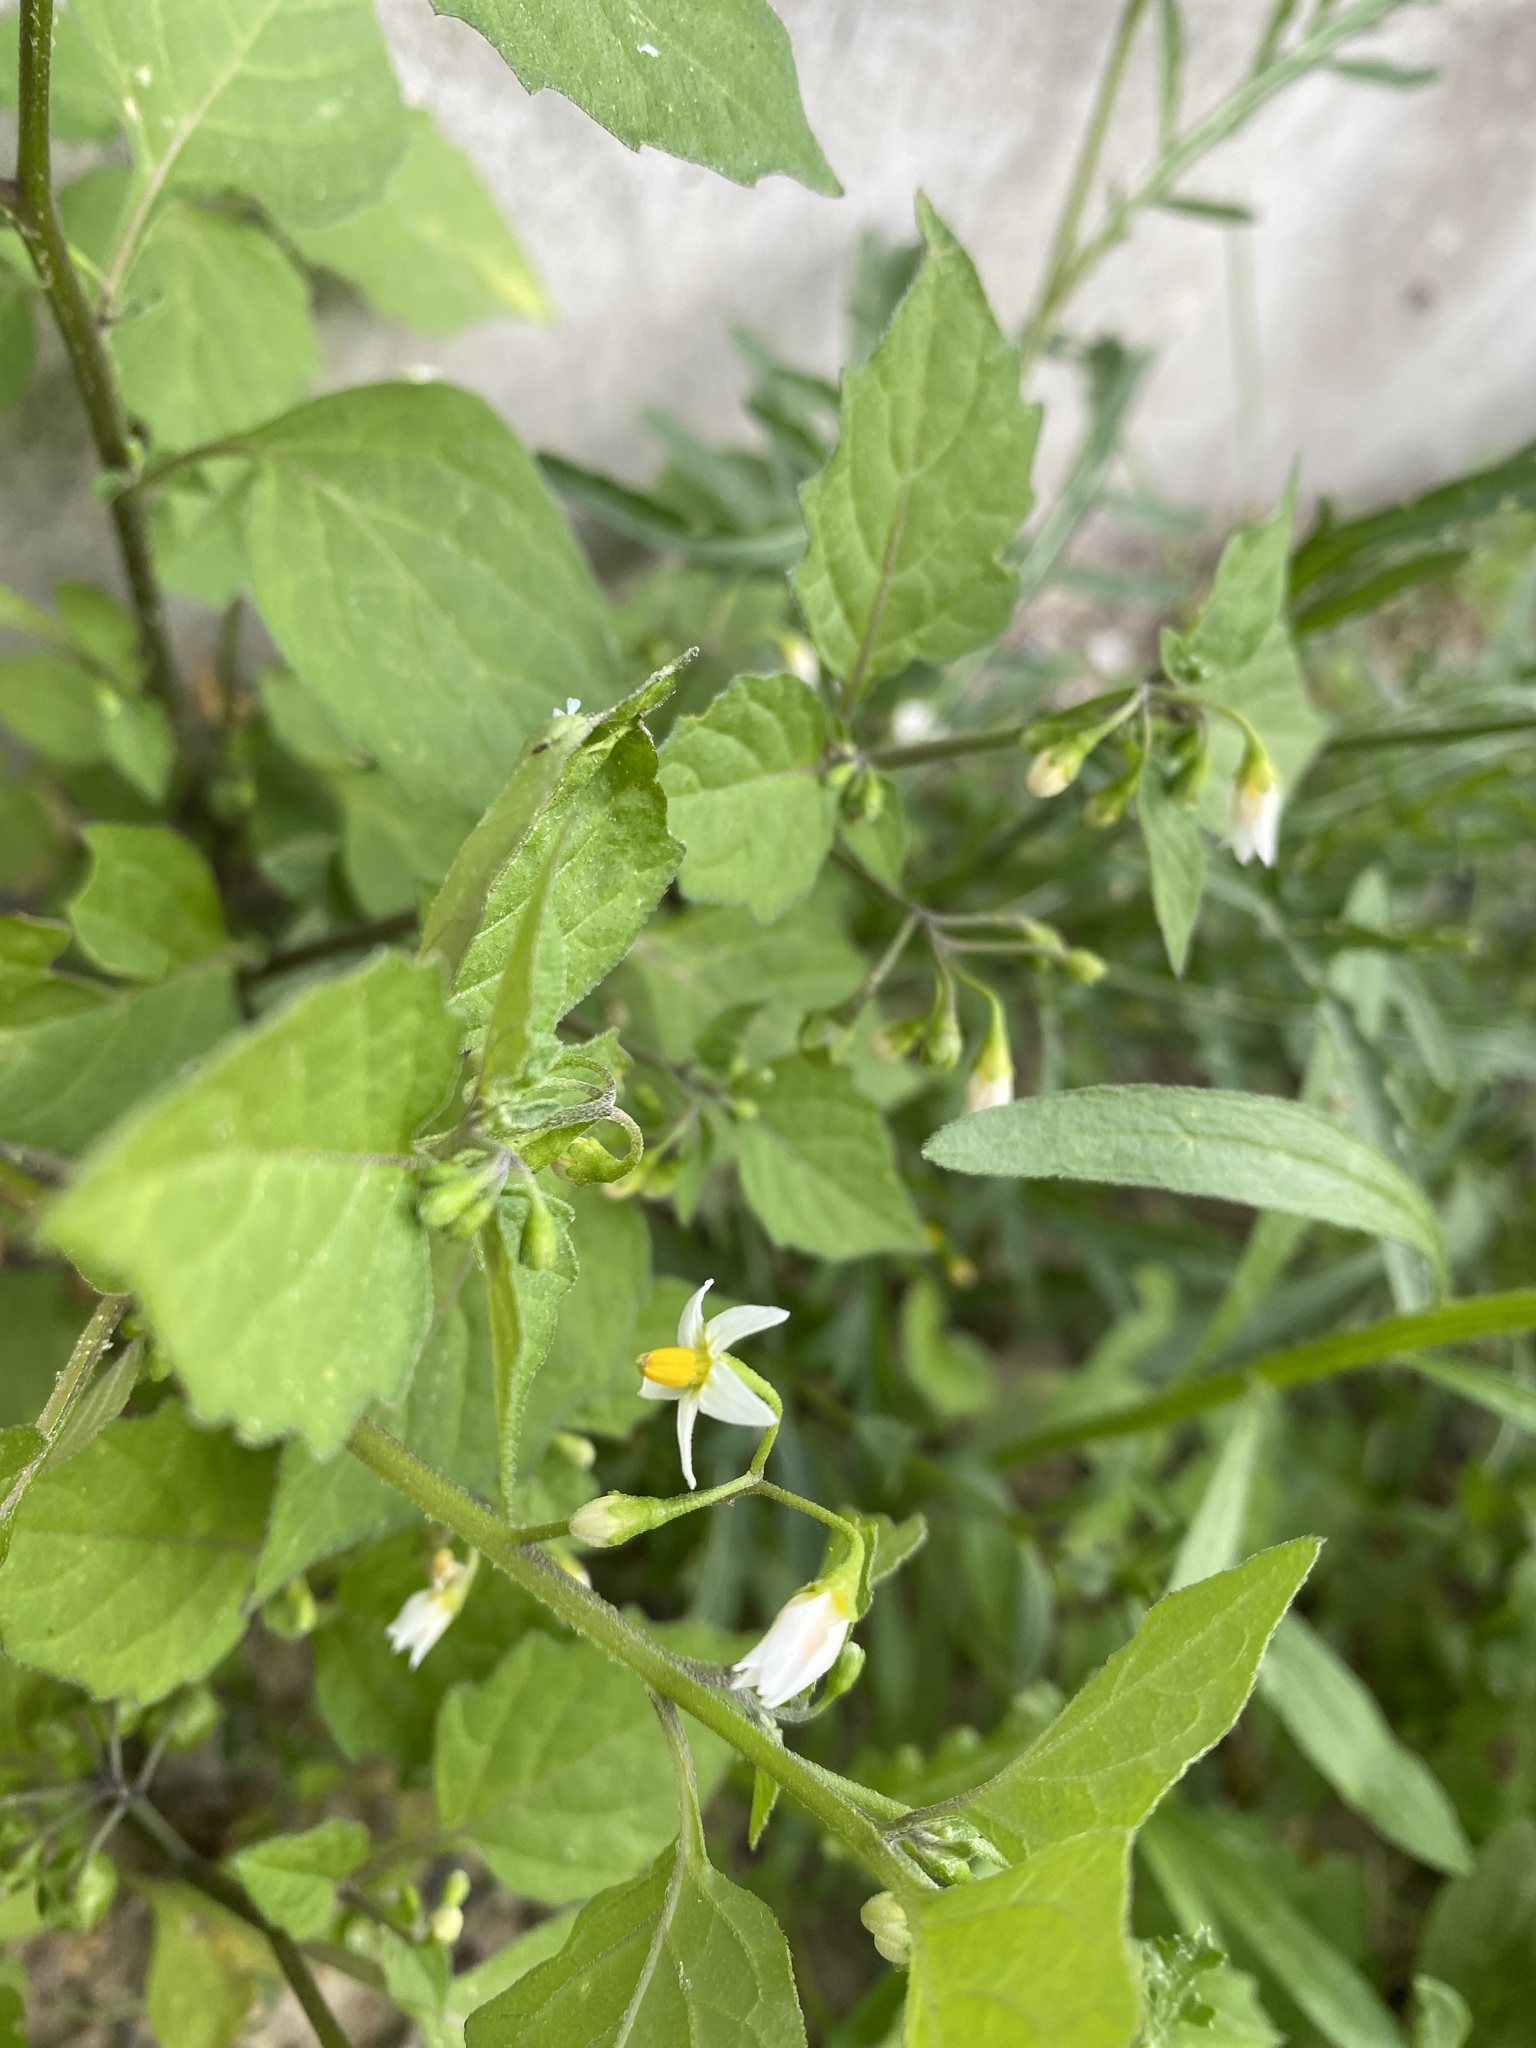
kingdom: Plantae
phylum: Tracheophyta
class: Magnoliopsida
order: Solanales
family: Solanaceae
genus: Solanum
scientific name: Solanum nigrum
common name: Black nightshade
